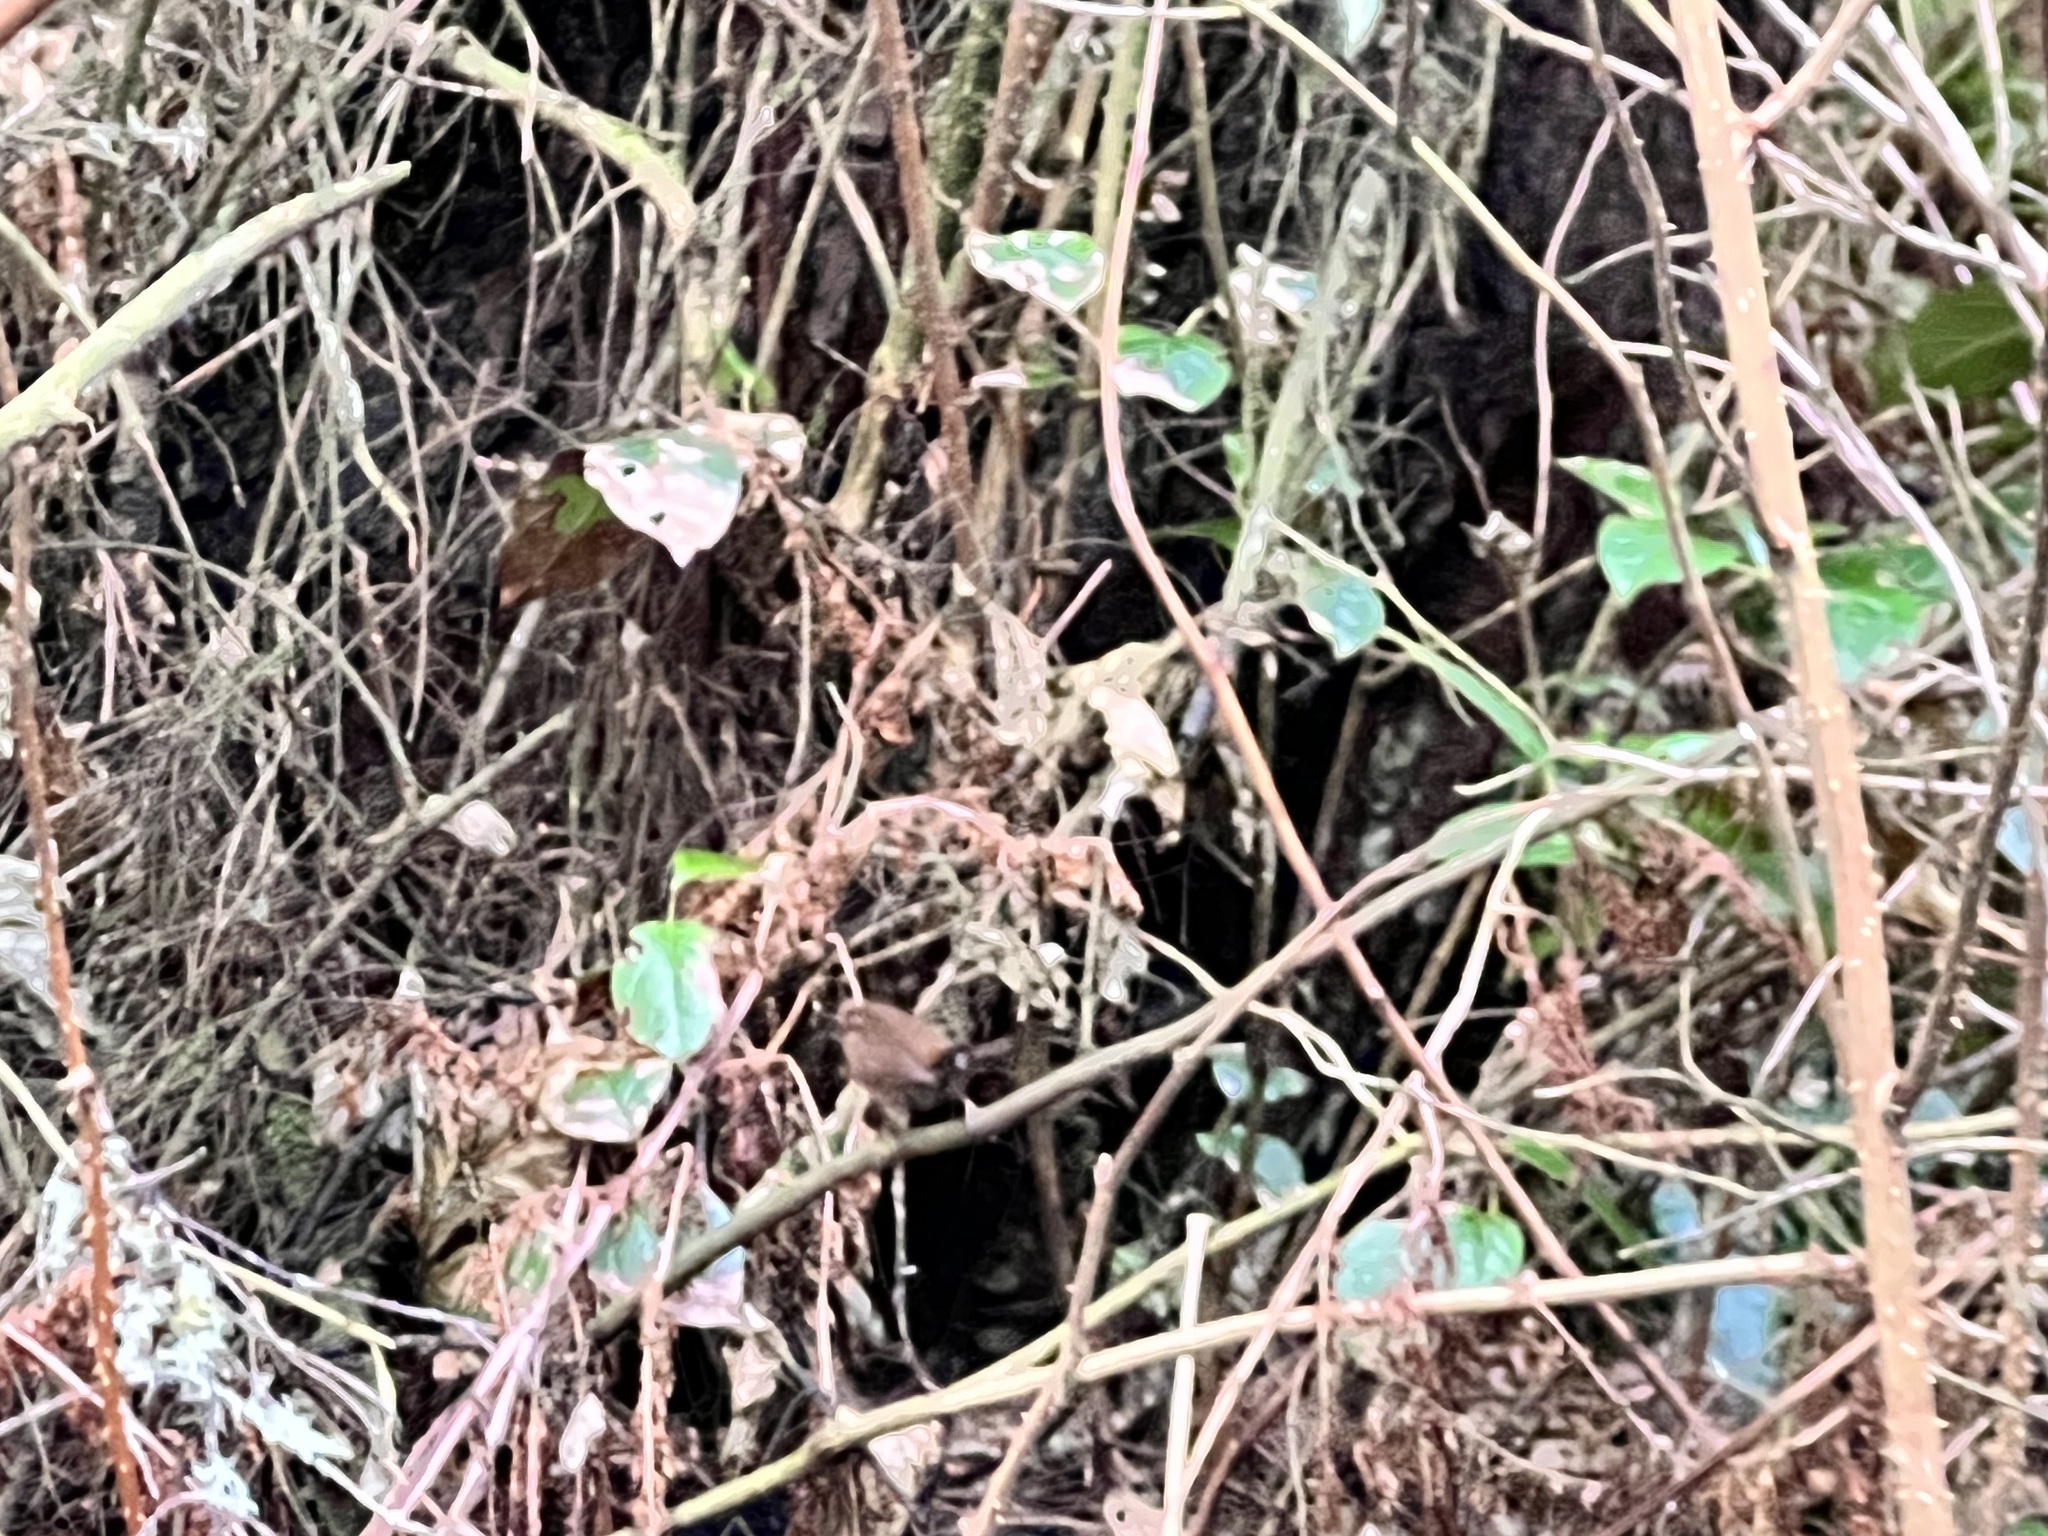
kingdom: Animalia
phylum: Chordata
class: Aves
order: Passeriformes
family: Troglodytidae
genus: Troglodytes
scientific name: Troglodytes pacificus
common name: Pacific wren
